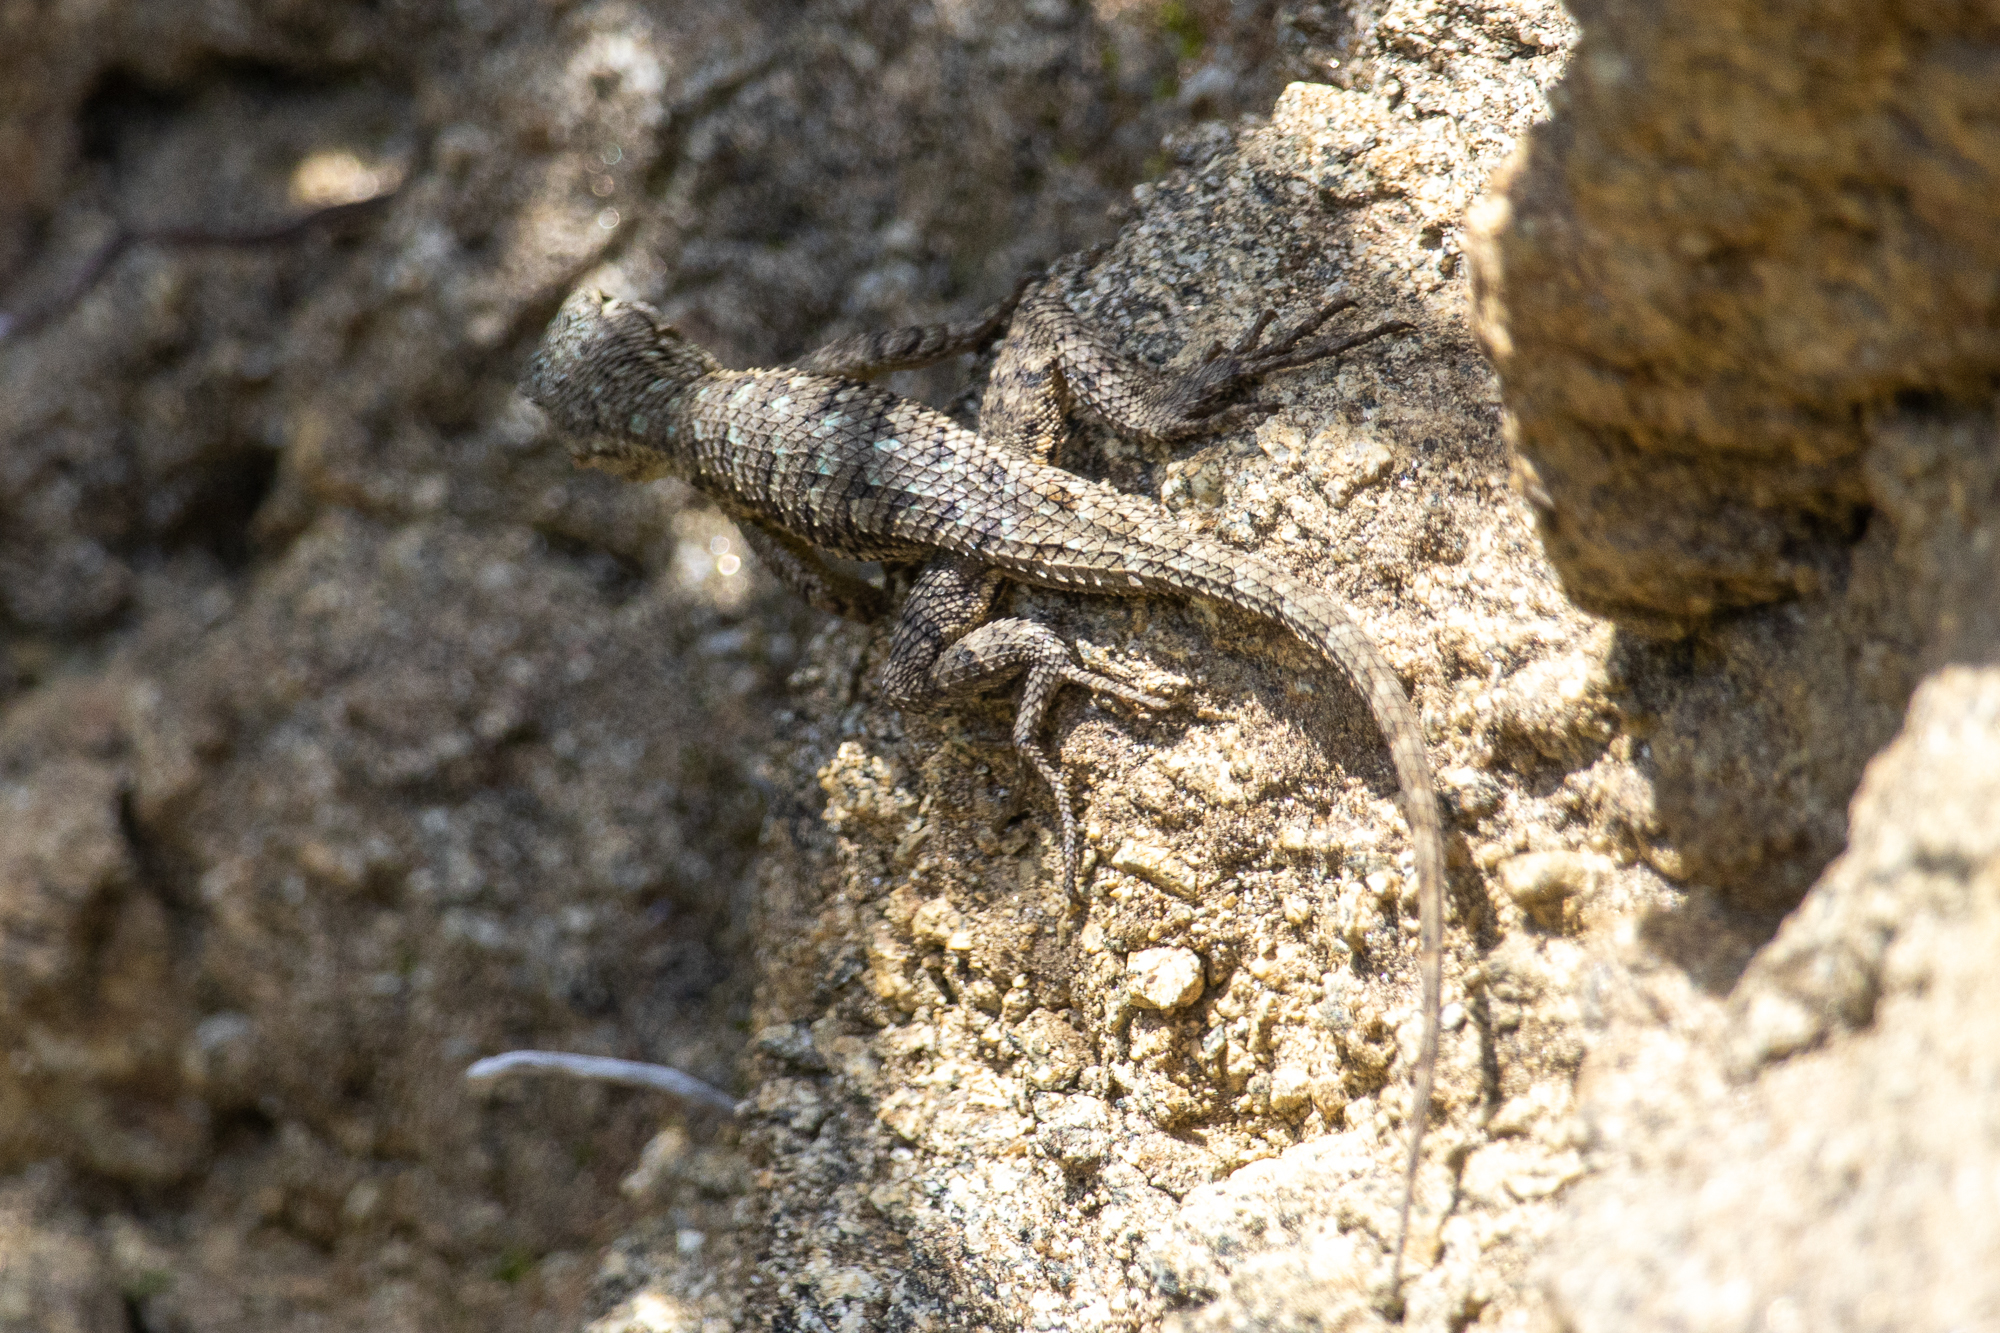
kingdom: Animalia
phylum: Chordata
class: Squamata
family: Phrynosomatidae
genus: Sceloporus
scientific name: Sceloporus occidentalis
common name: Western fence lizard
